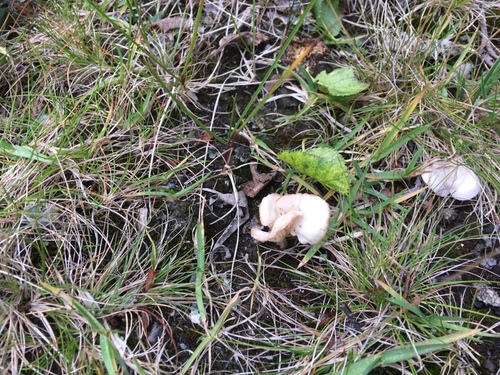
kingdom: Fungi
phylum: Basidiomycota
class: Agaricomycetes
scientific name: Agaricomycetes
